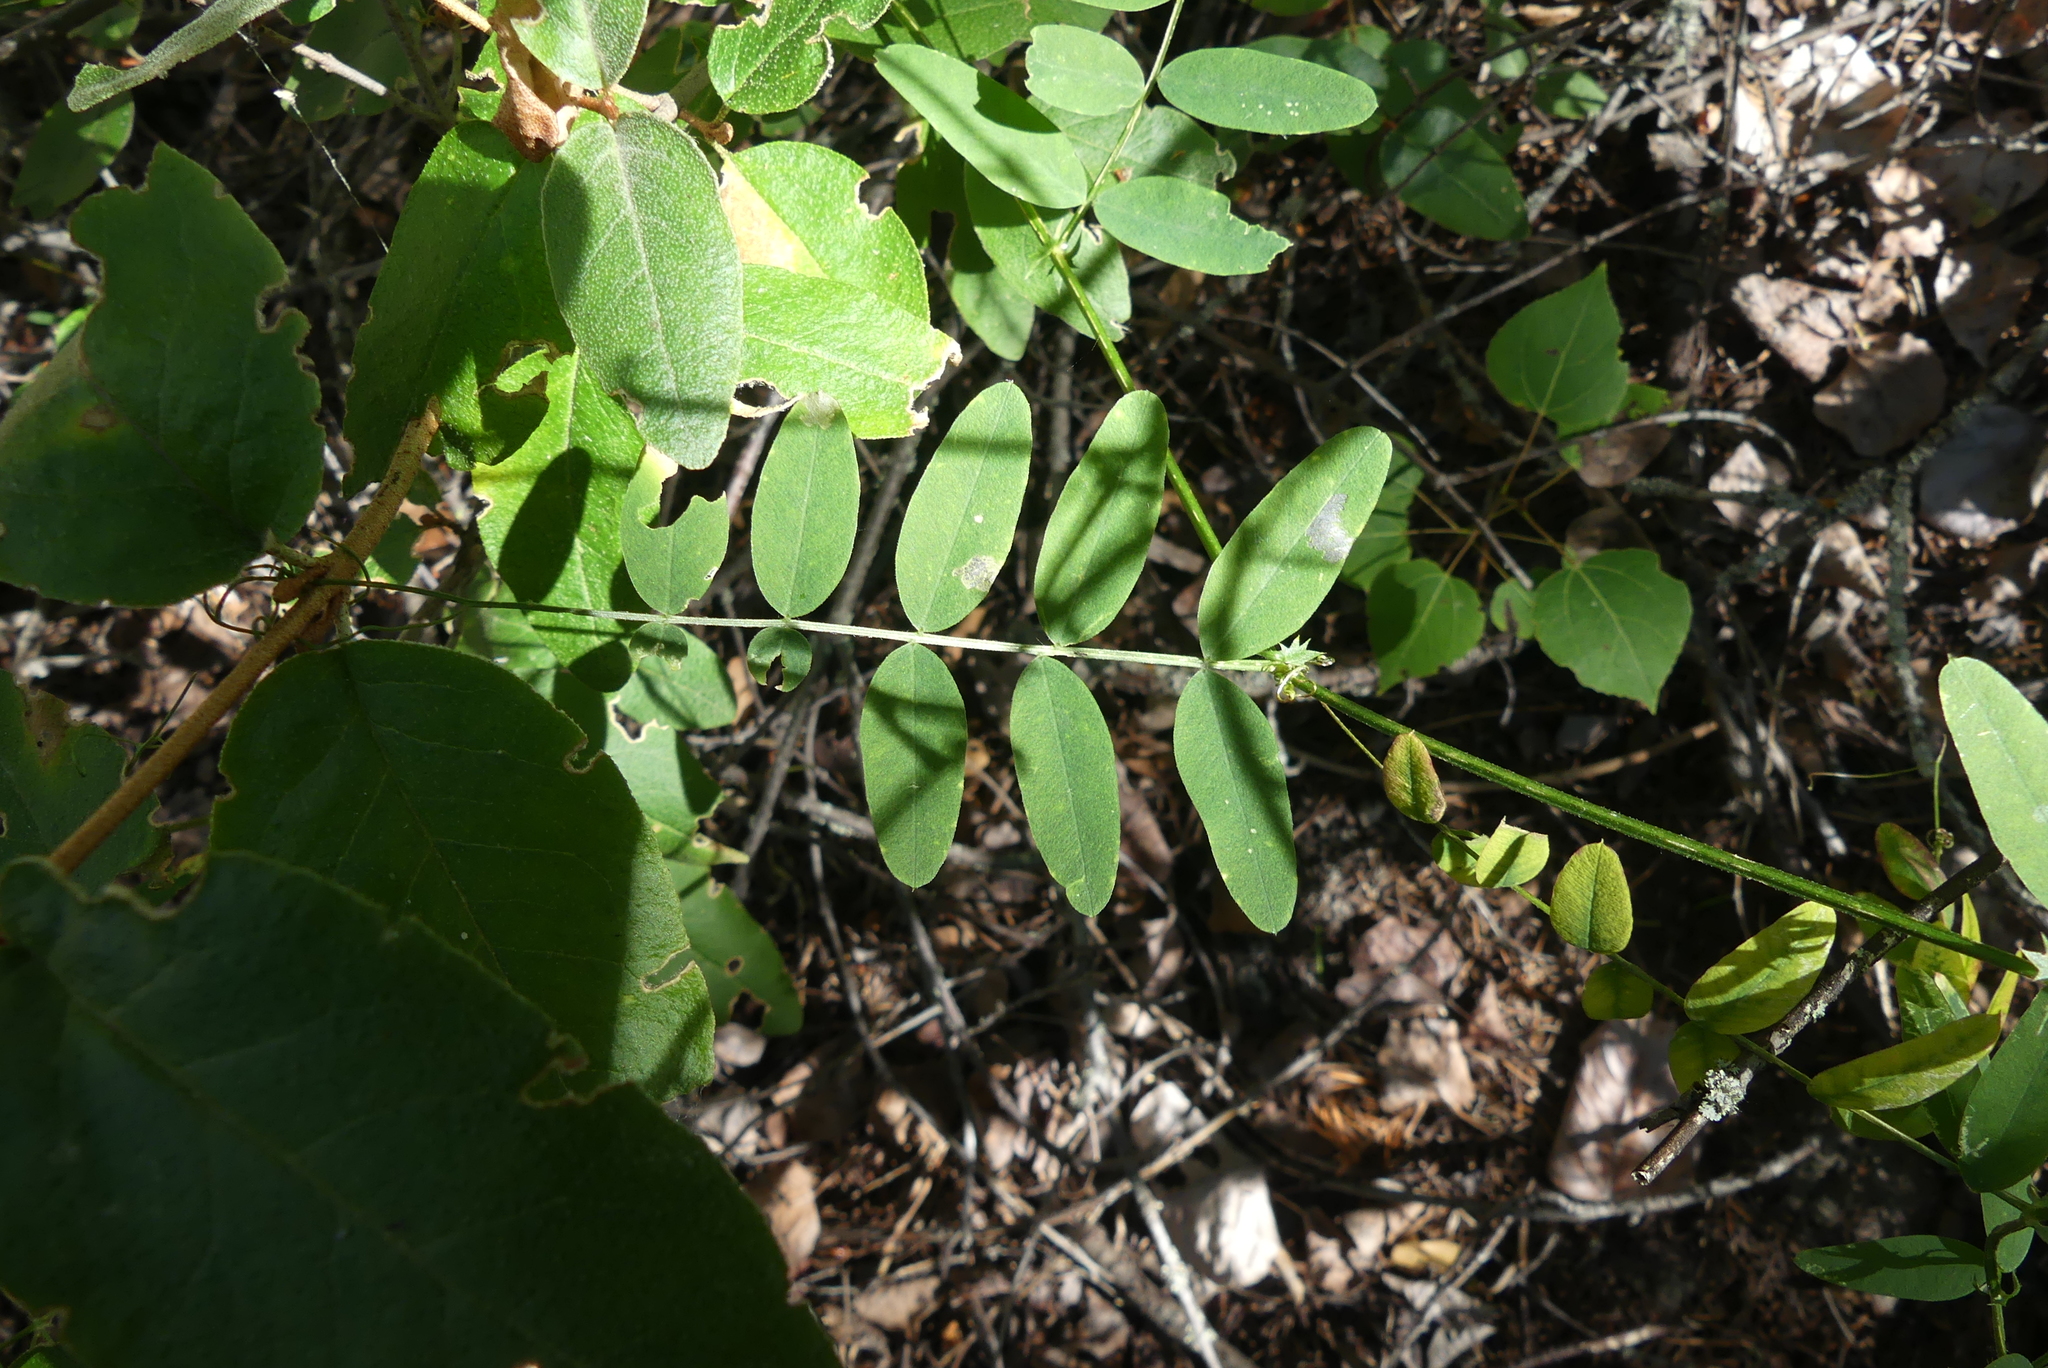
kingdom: Plantae
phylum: Tracheophyta
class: Magnoliopsida
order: Fabales
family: Fabaceae
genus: Vicia
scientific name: Vicia americana
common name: American vetch
